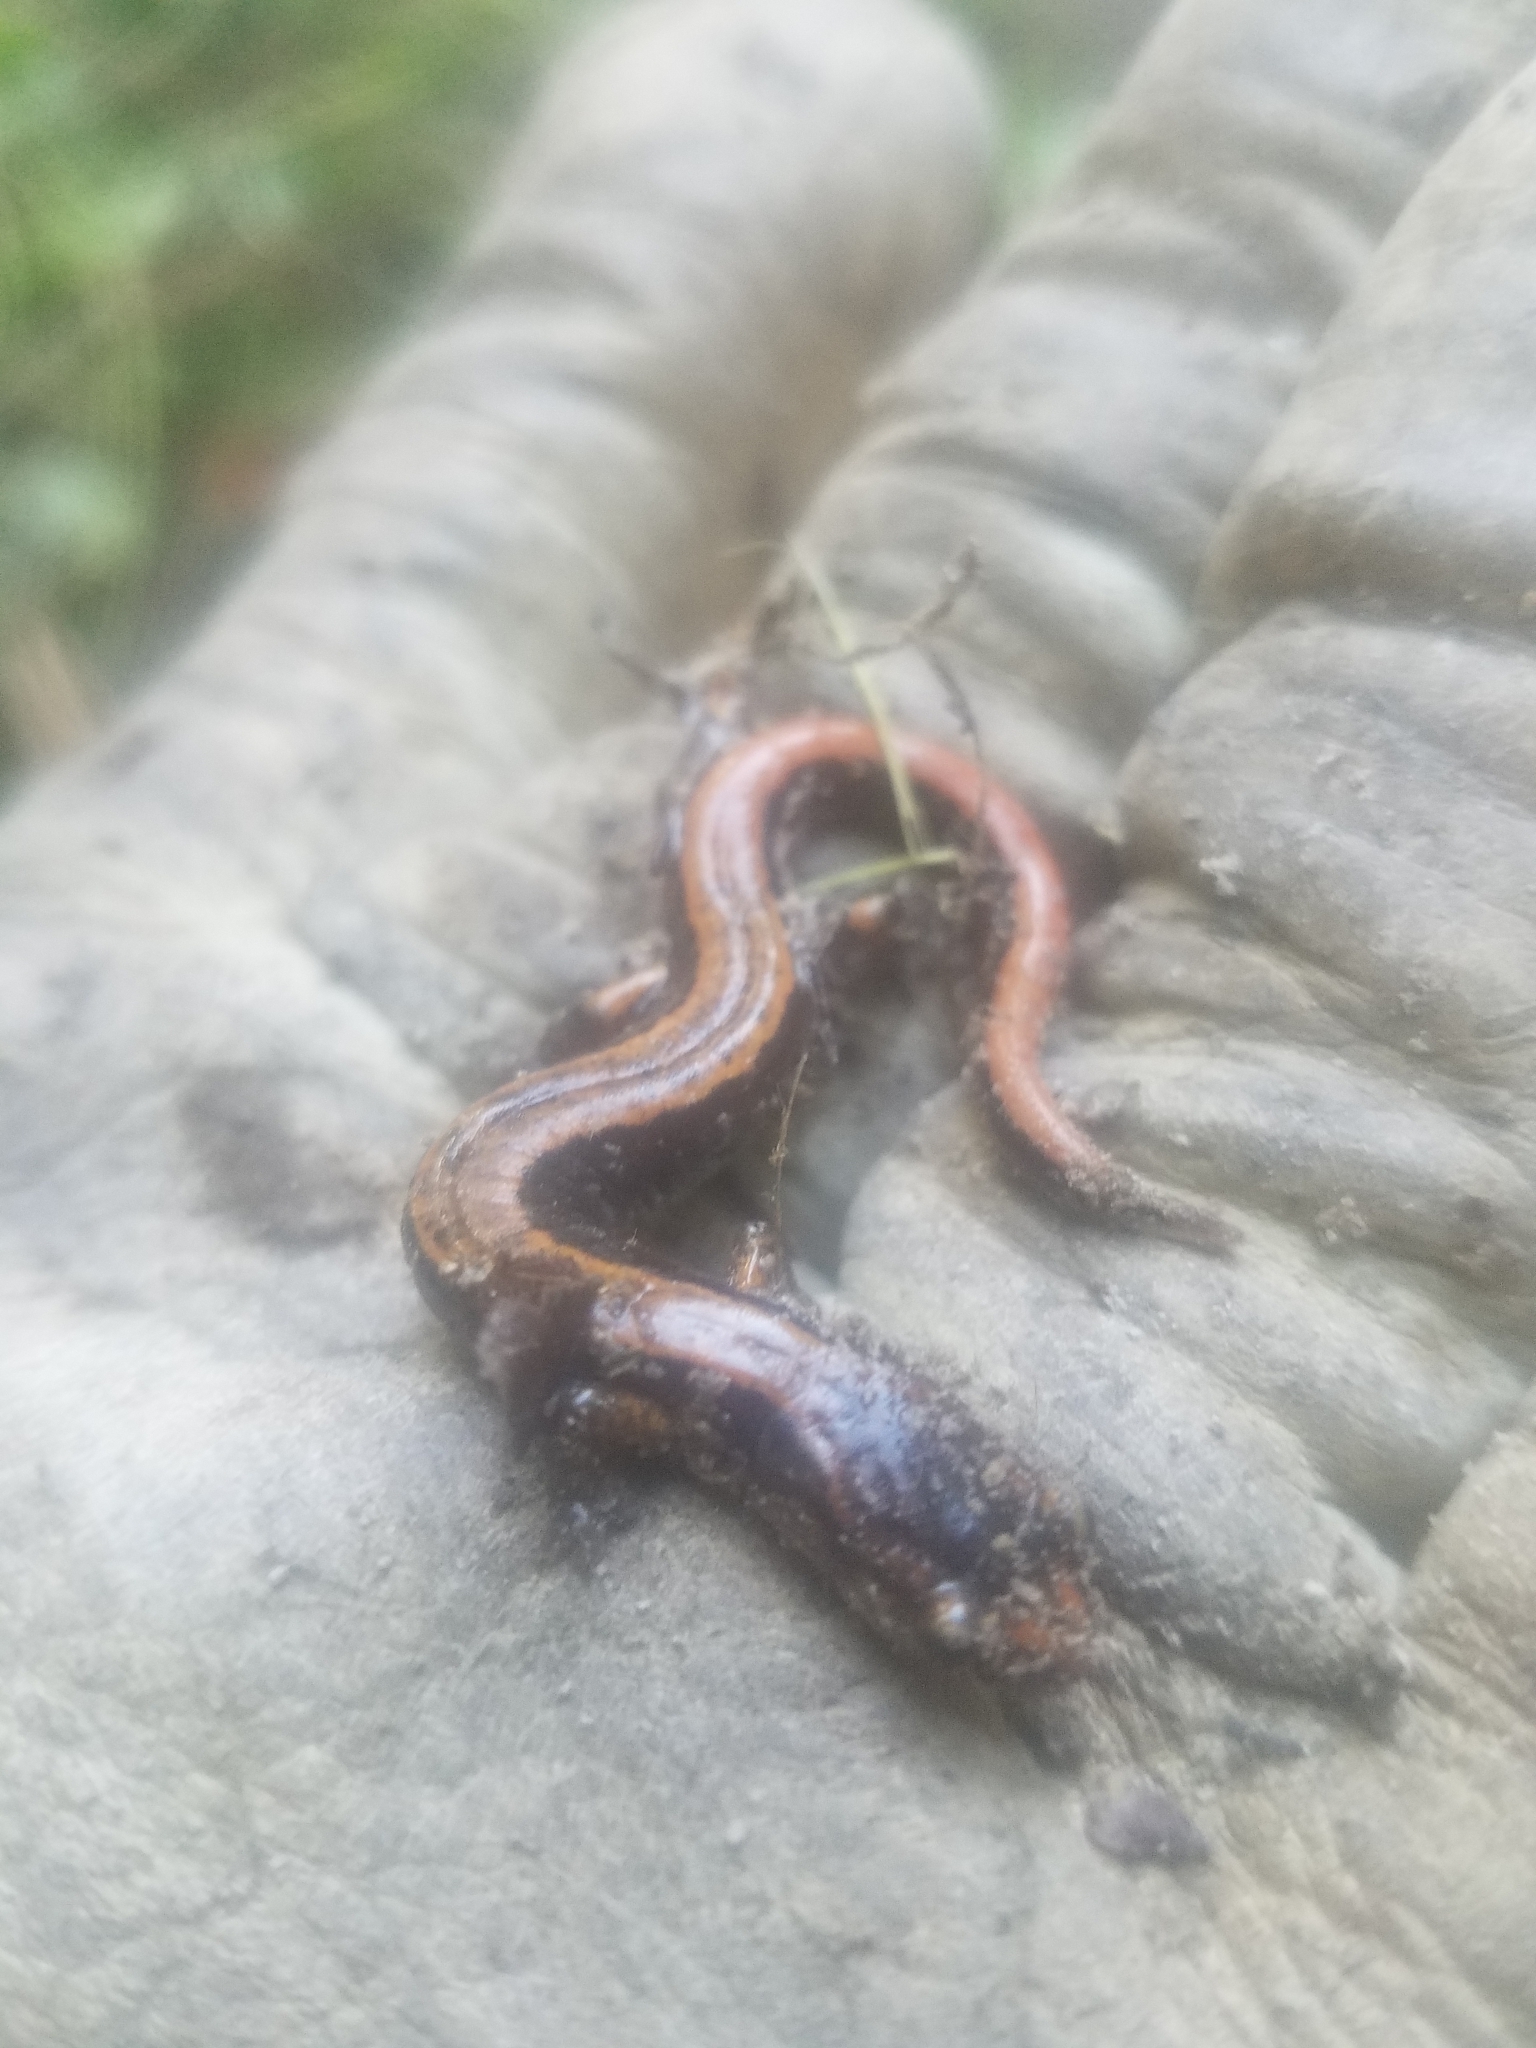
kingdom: Animalia
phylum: Chordata
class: Amphibia
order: Caudata
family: Plethodontidae
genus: Plethodon
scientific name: Plethodon vehiculum
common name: Western red-backed salamander
